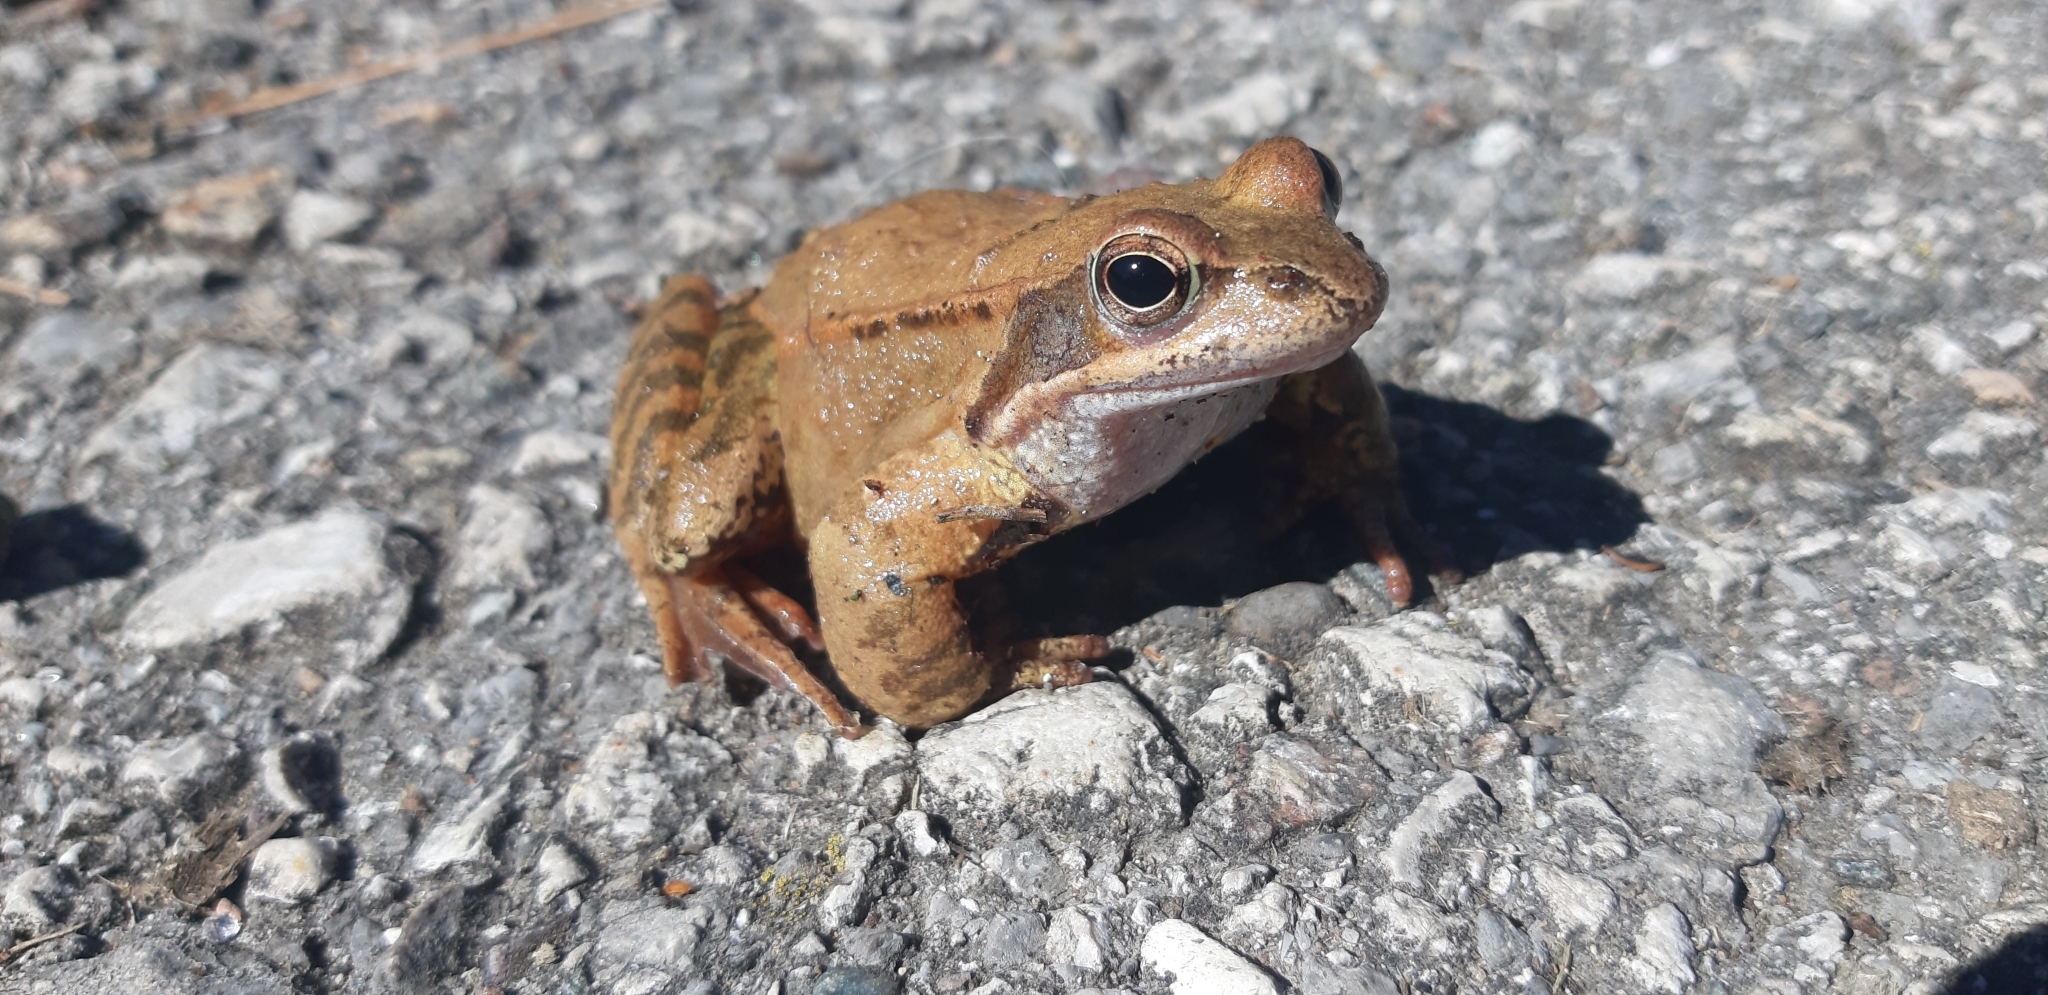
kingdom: Animalia
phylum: Chordata
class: Amphibia
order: Anura
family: Ranidae
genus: Rana
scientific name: Rana temporaria
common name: Common frog
